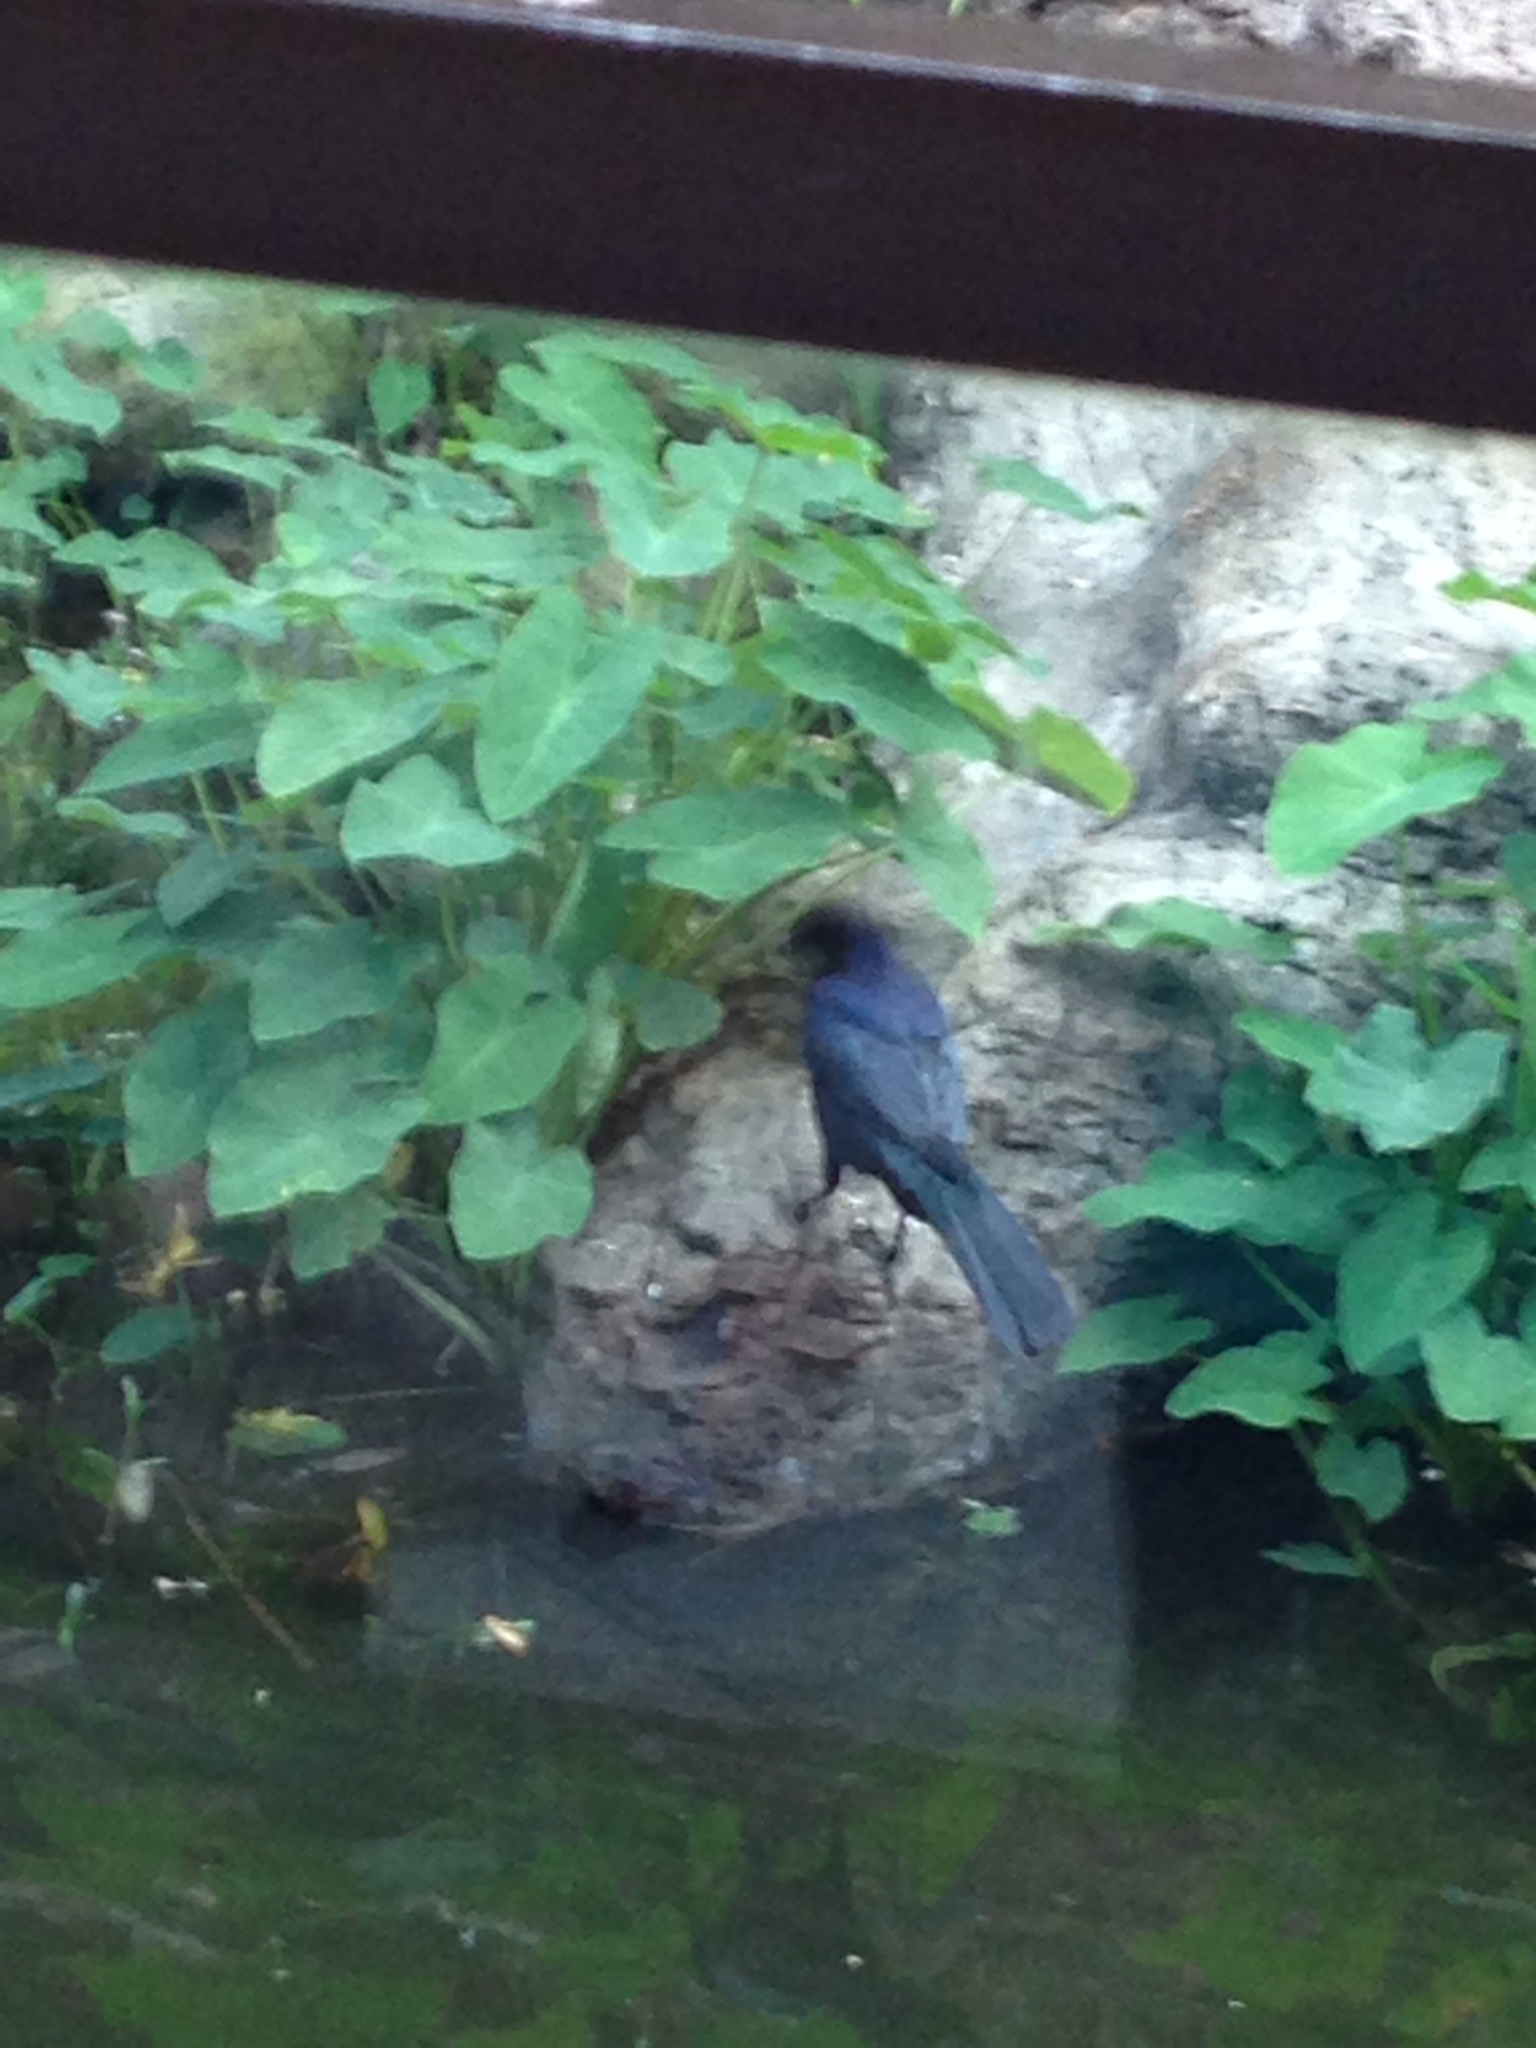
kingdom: Animalia
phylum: Chordata
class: Aves
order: Passeriformes
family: Icteridae
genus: Quiscalus
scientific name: Quiscalus mexicanus
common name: Great-tailed grackle
